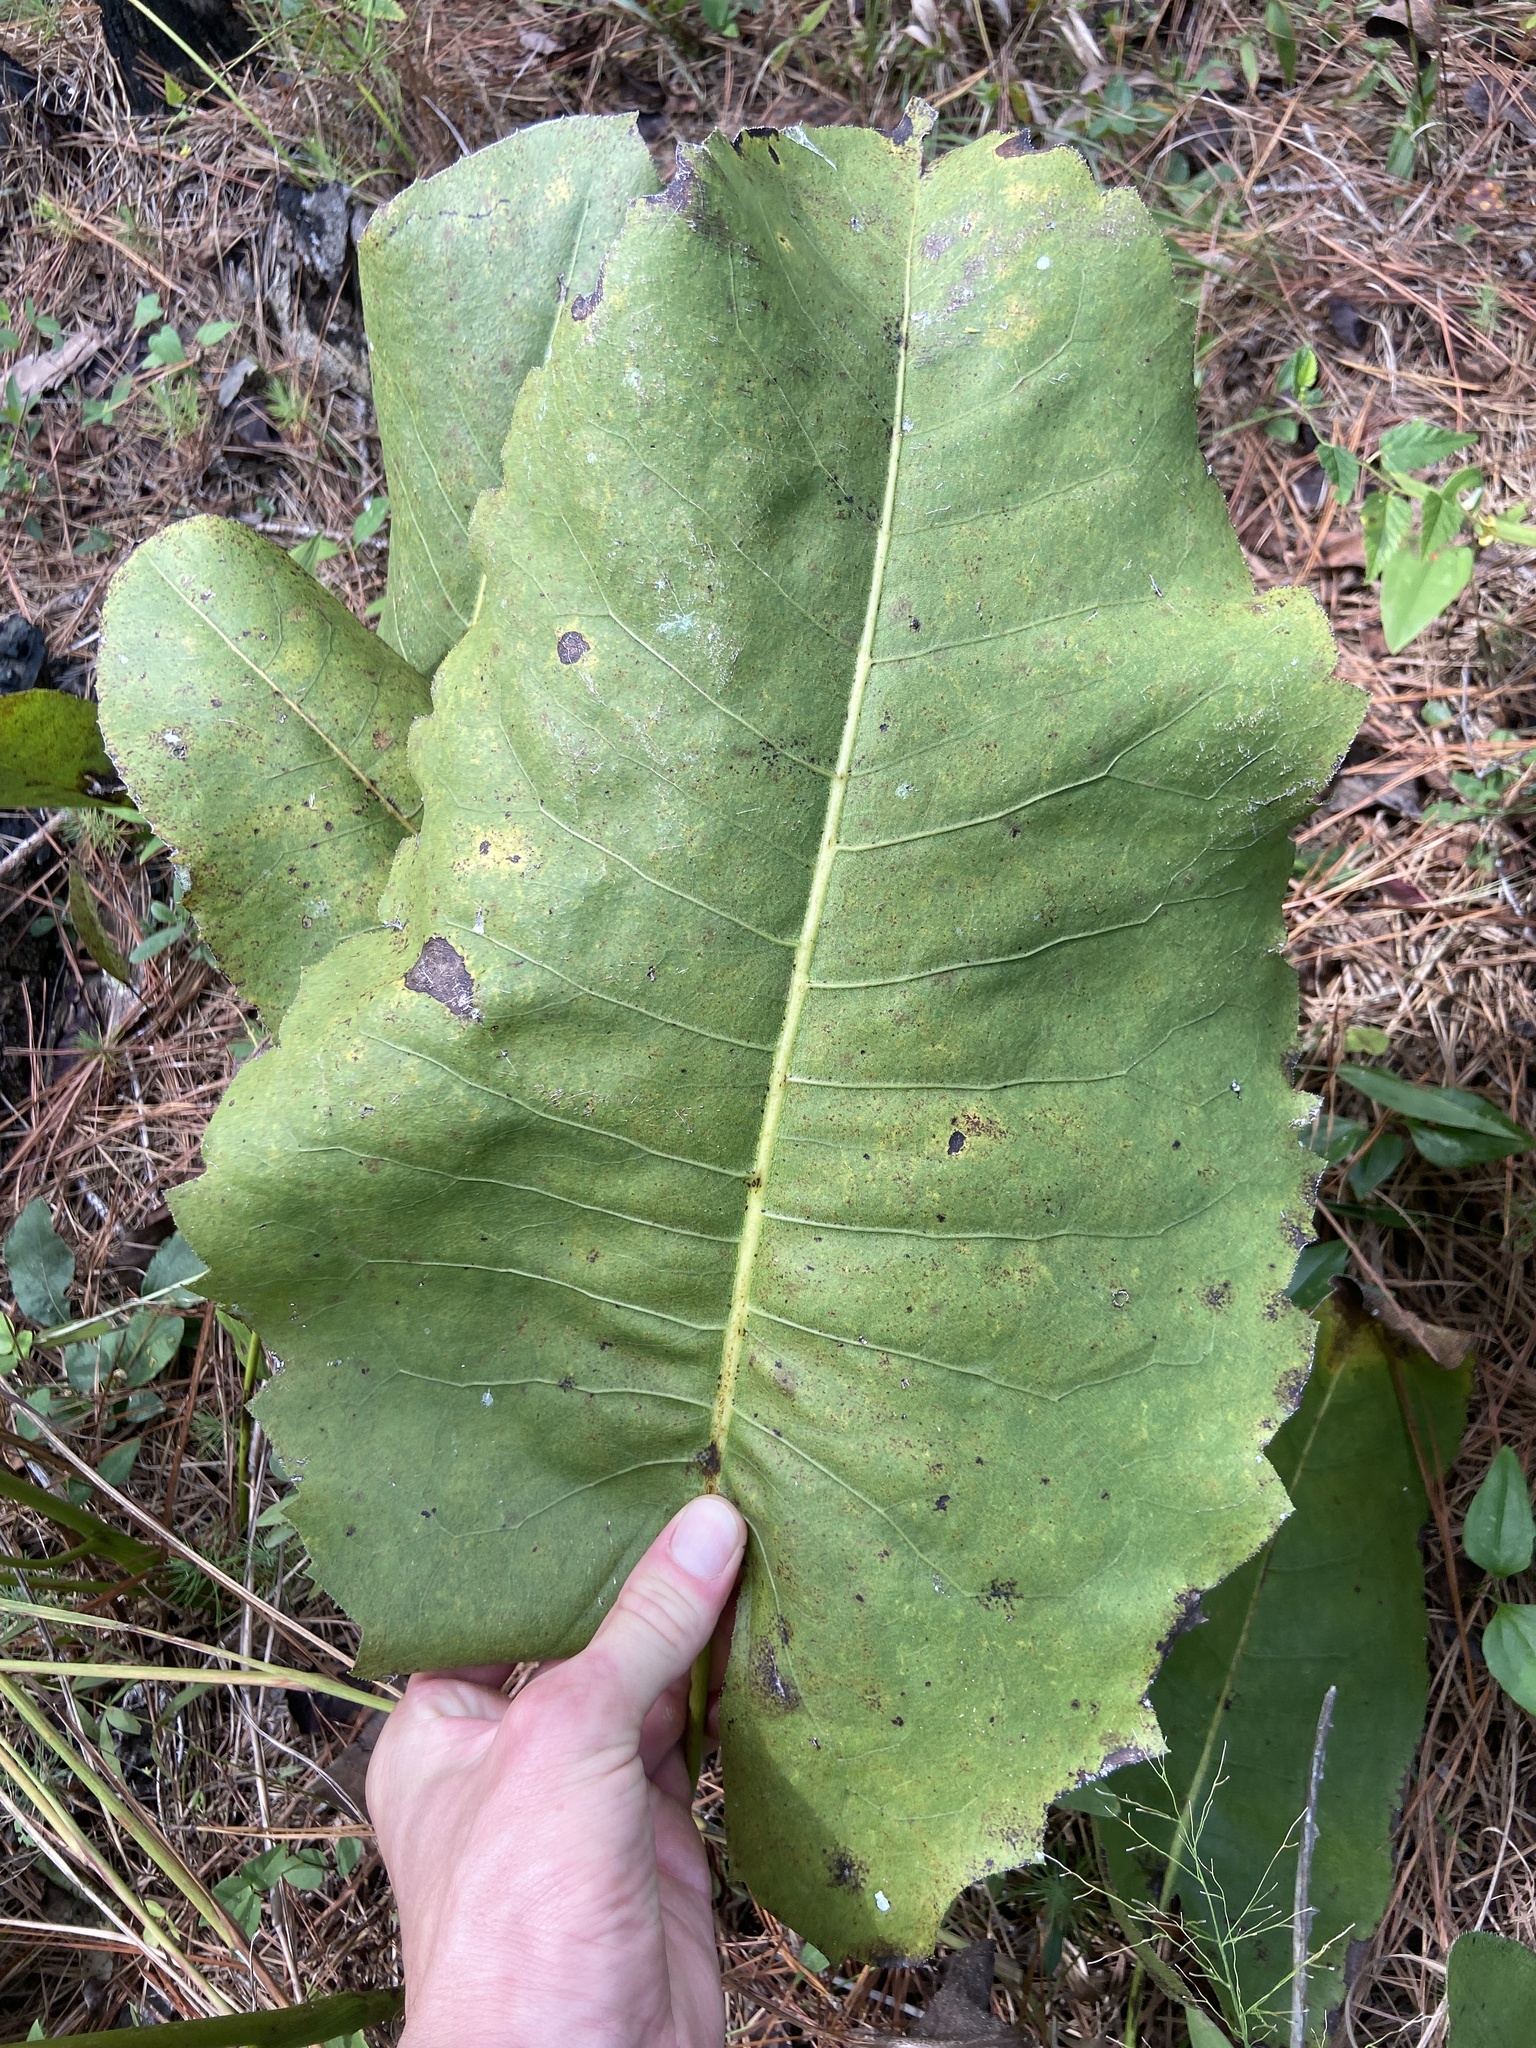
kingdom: Plantae
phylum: Tracheophyta
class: Magnoliopsida
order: Asterales
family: Asteraceae
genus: Silphium
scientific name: Silphium terebinthinaceum
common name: Basal-leaf rosinweed
